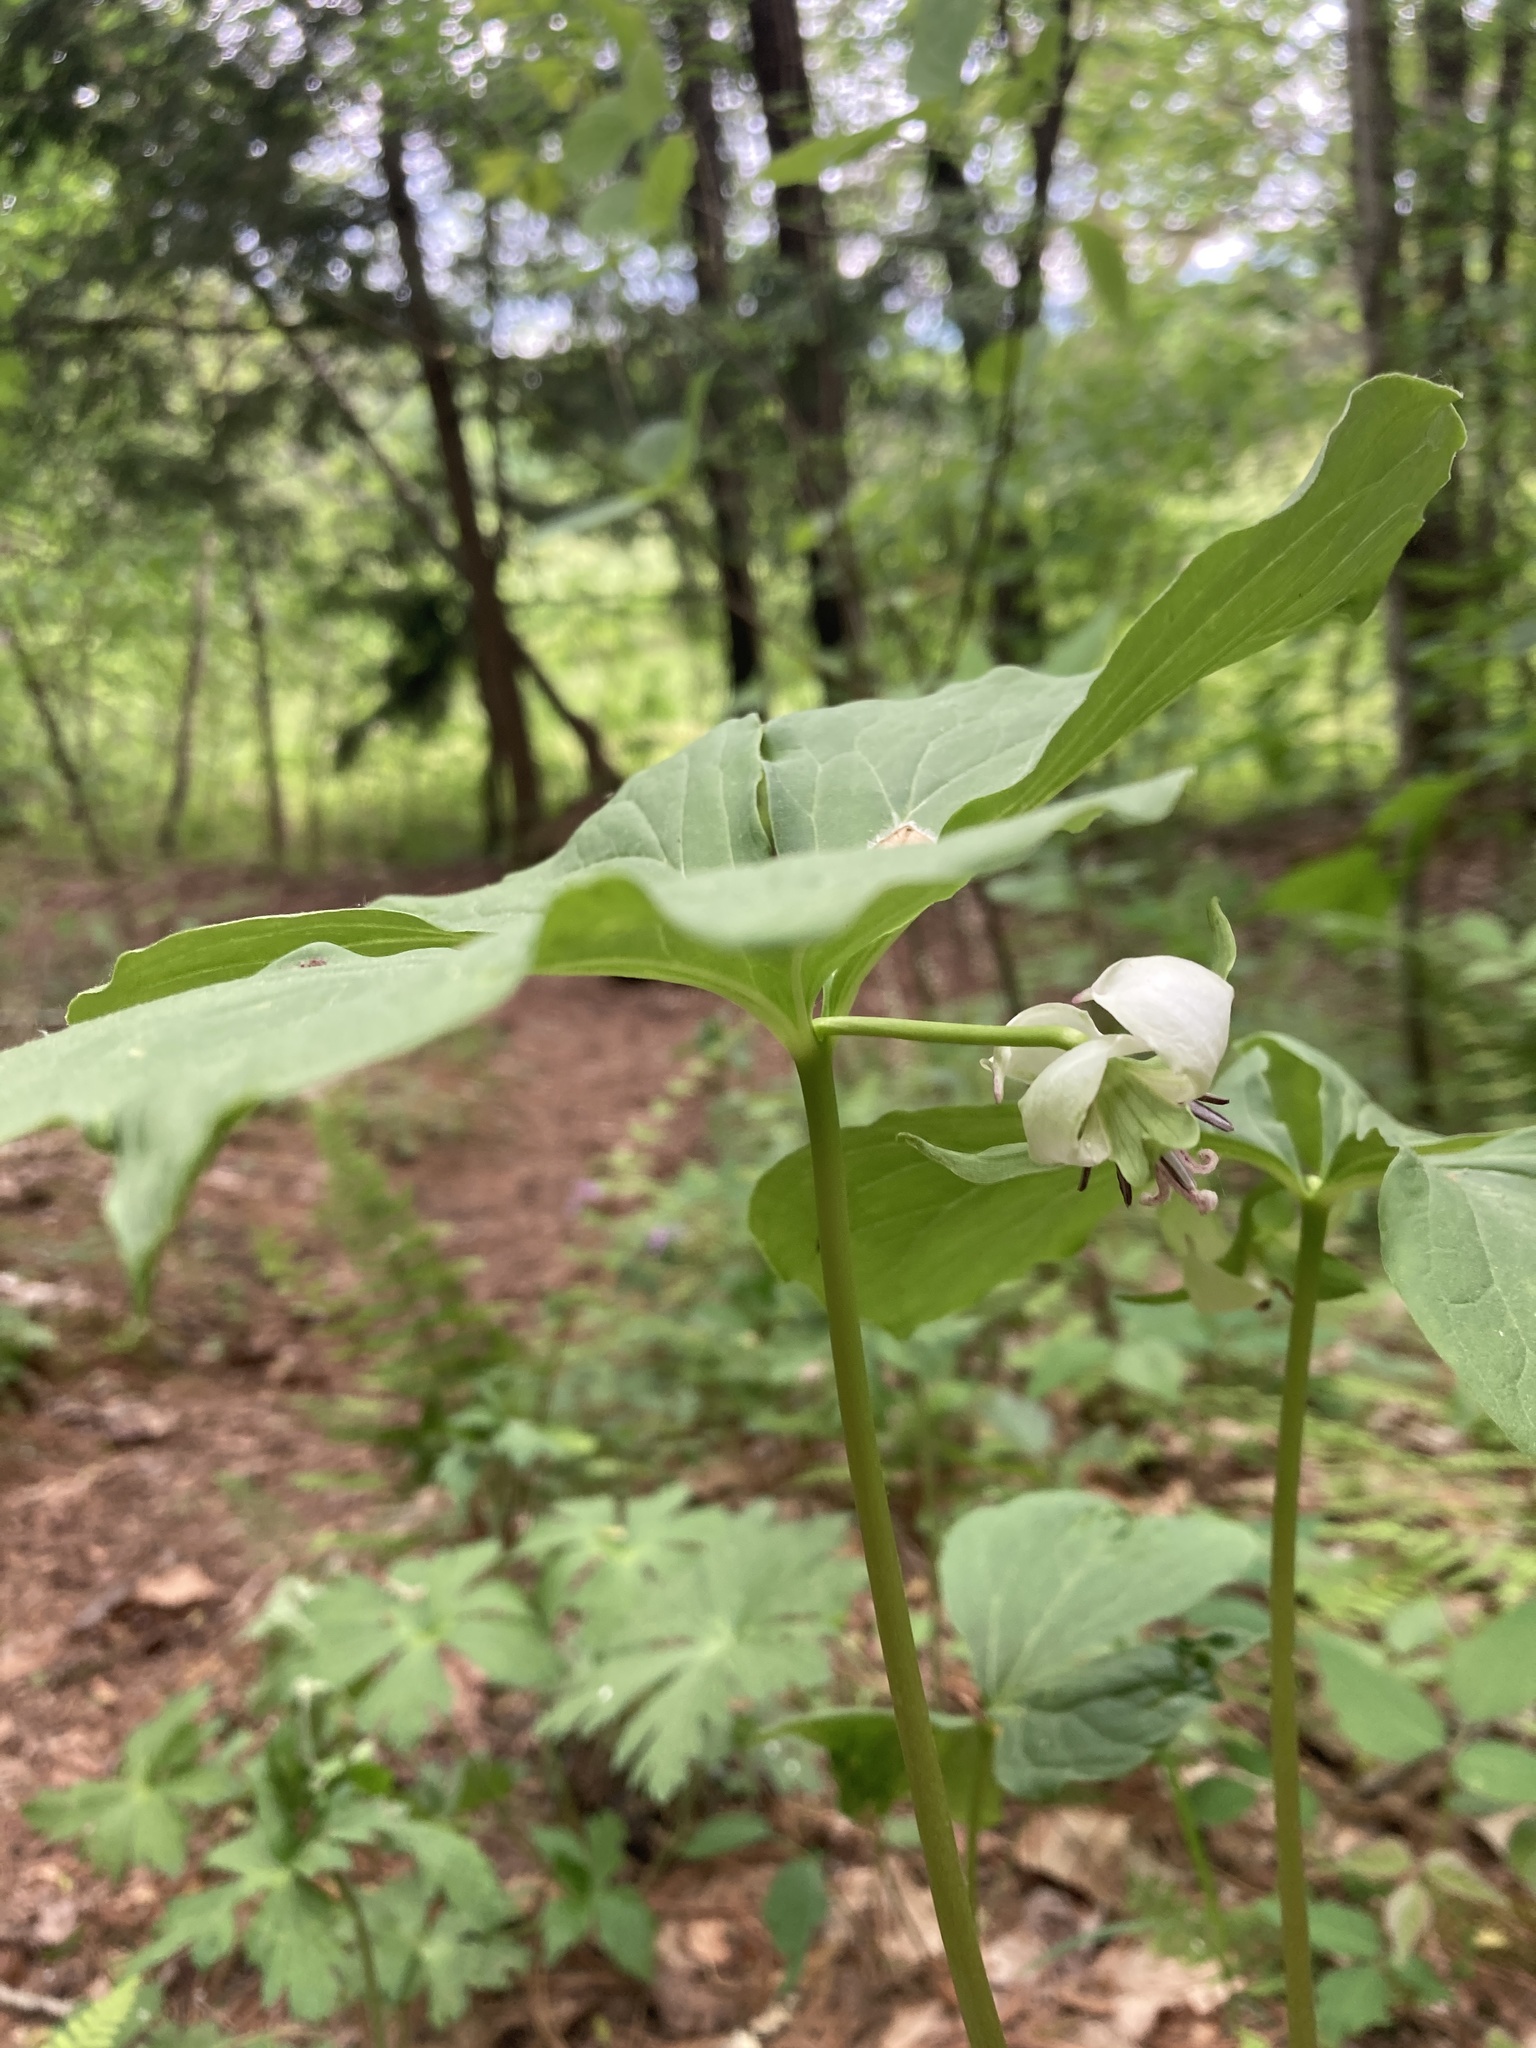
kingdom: Plantae
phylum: Tracheophyta
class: Liliopsida
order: Liliales
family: Melanthiaceae
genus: Trillium
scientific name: Trillium cernuum
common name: Nodding trillium
